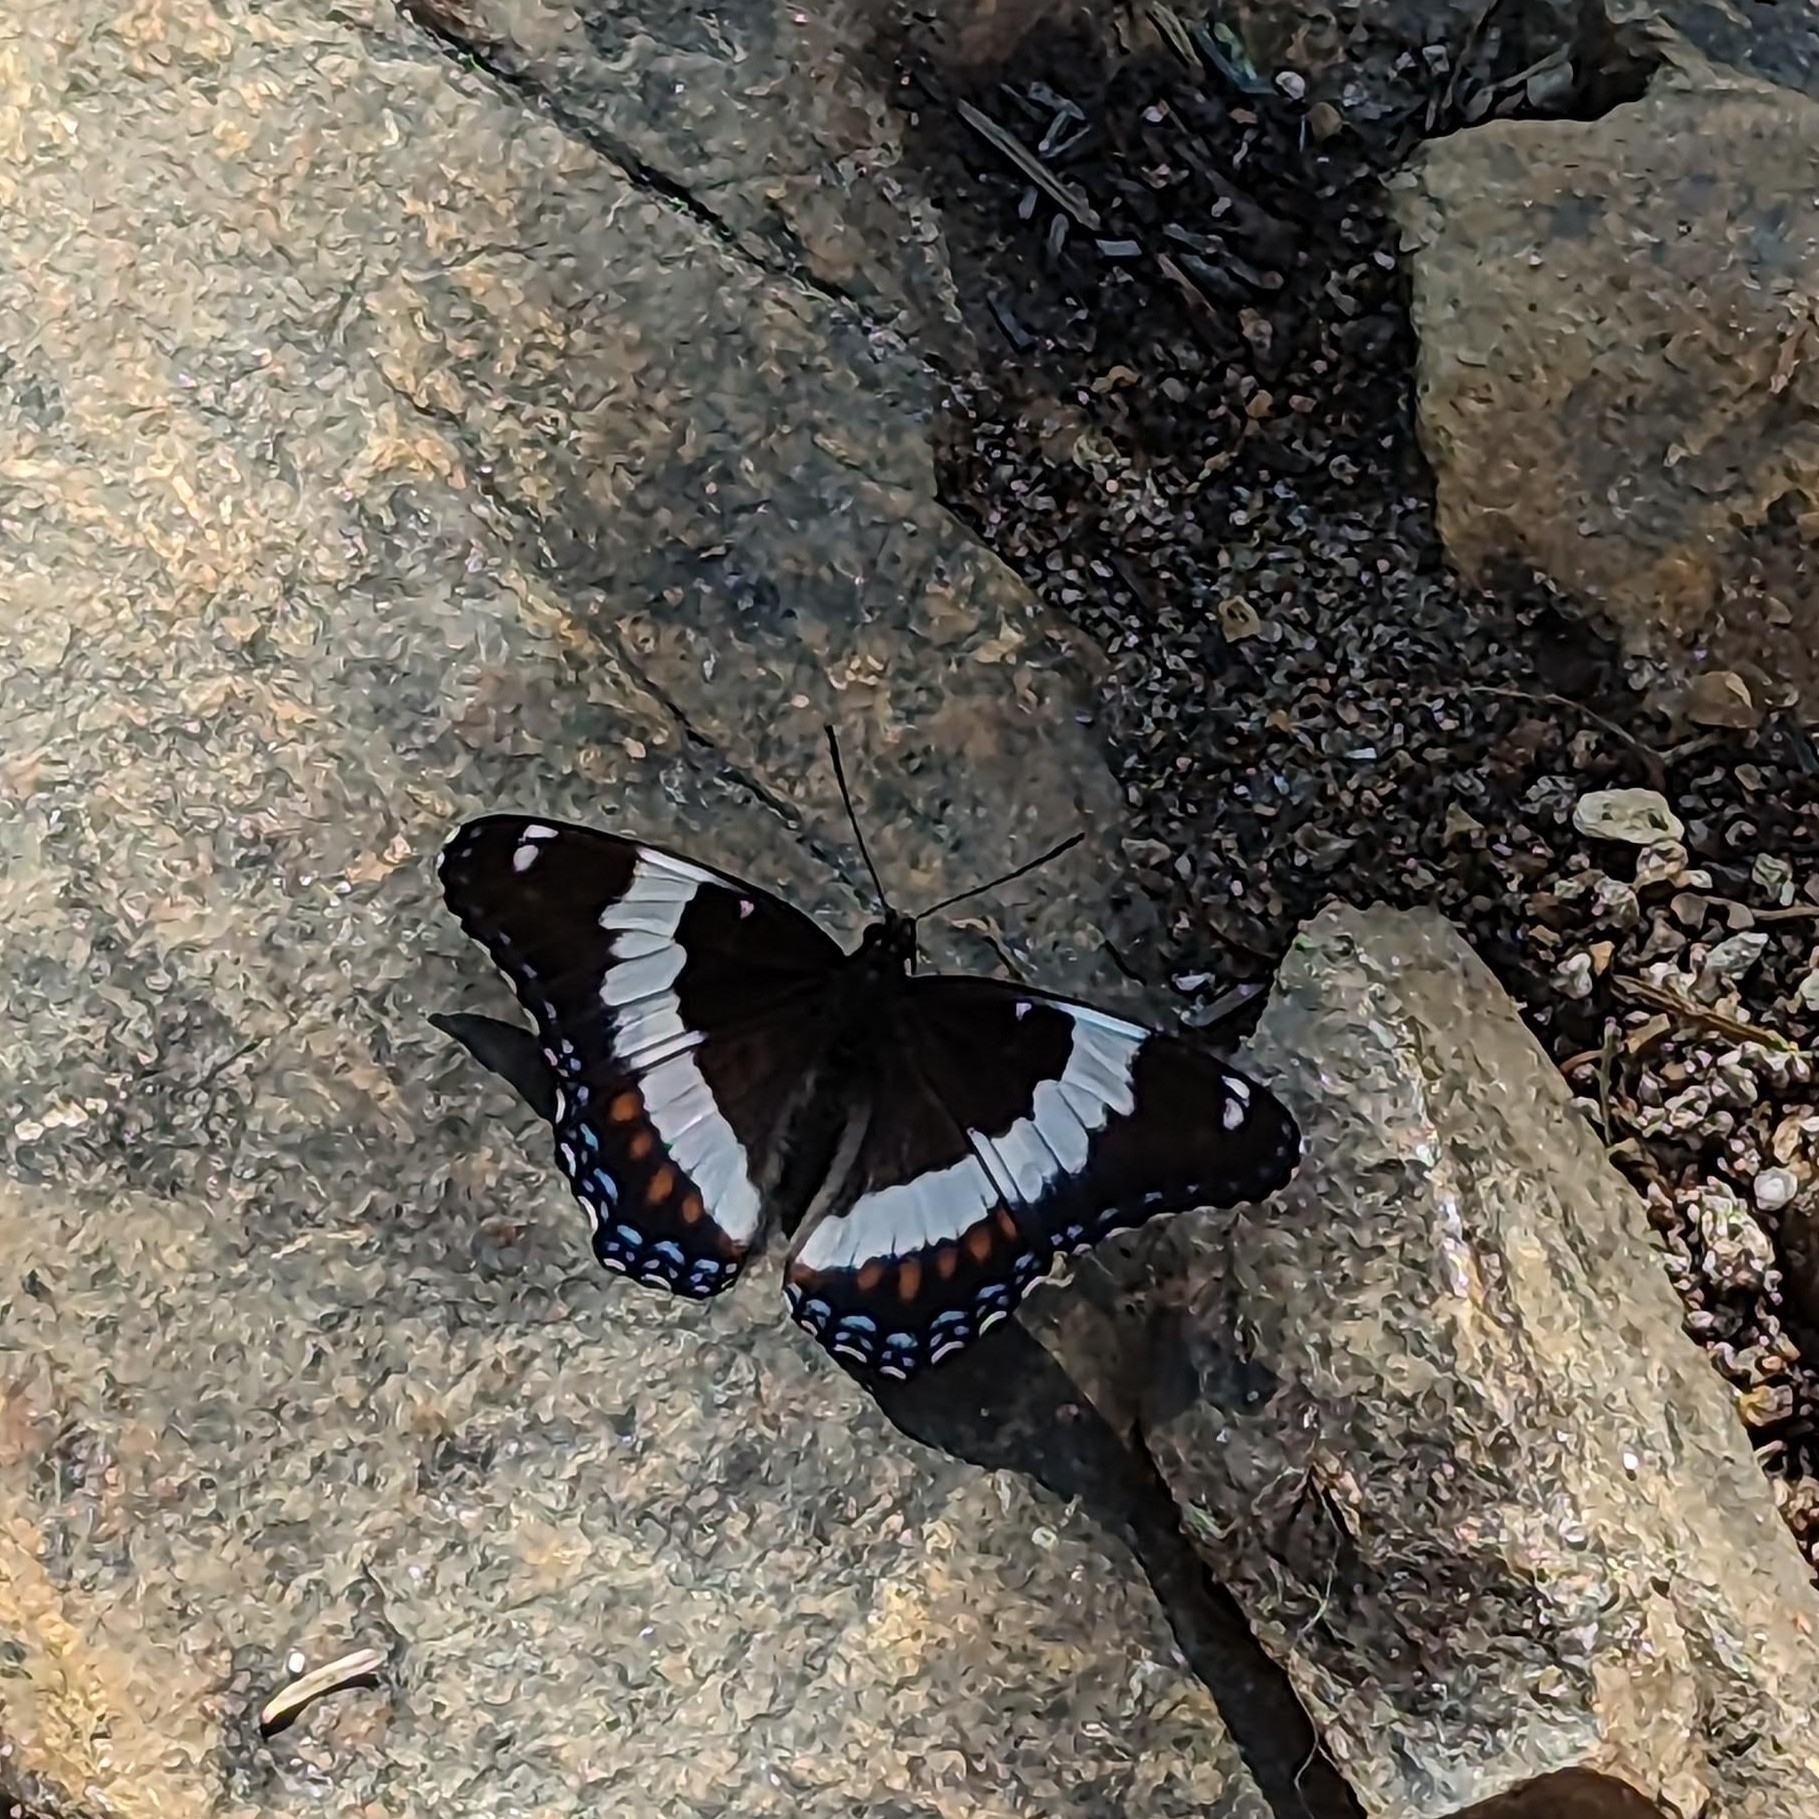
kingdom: Animalia
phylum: Arthropoda
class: Insecta
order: Lepidoptera
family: Nymphalidae
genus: Limenitis
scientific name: Limenitis arthemis
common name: Red-spotted admiral
